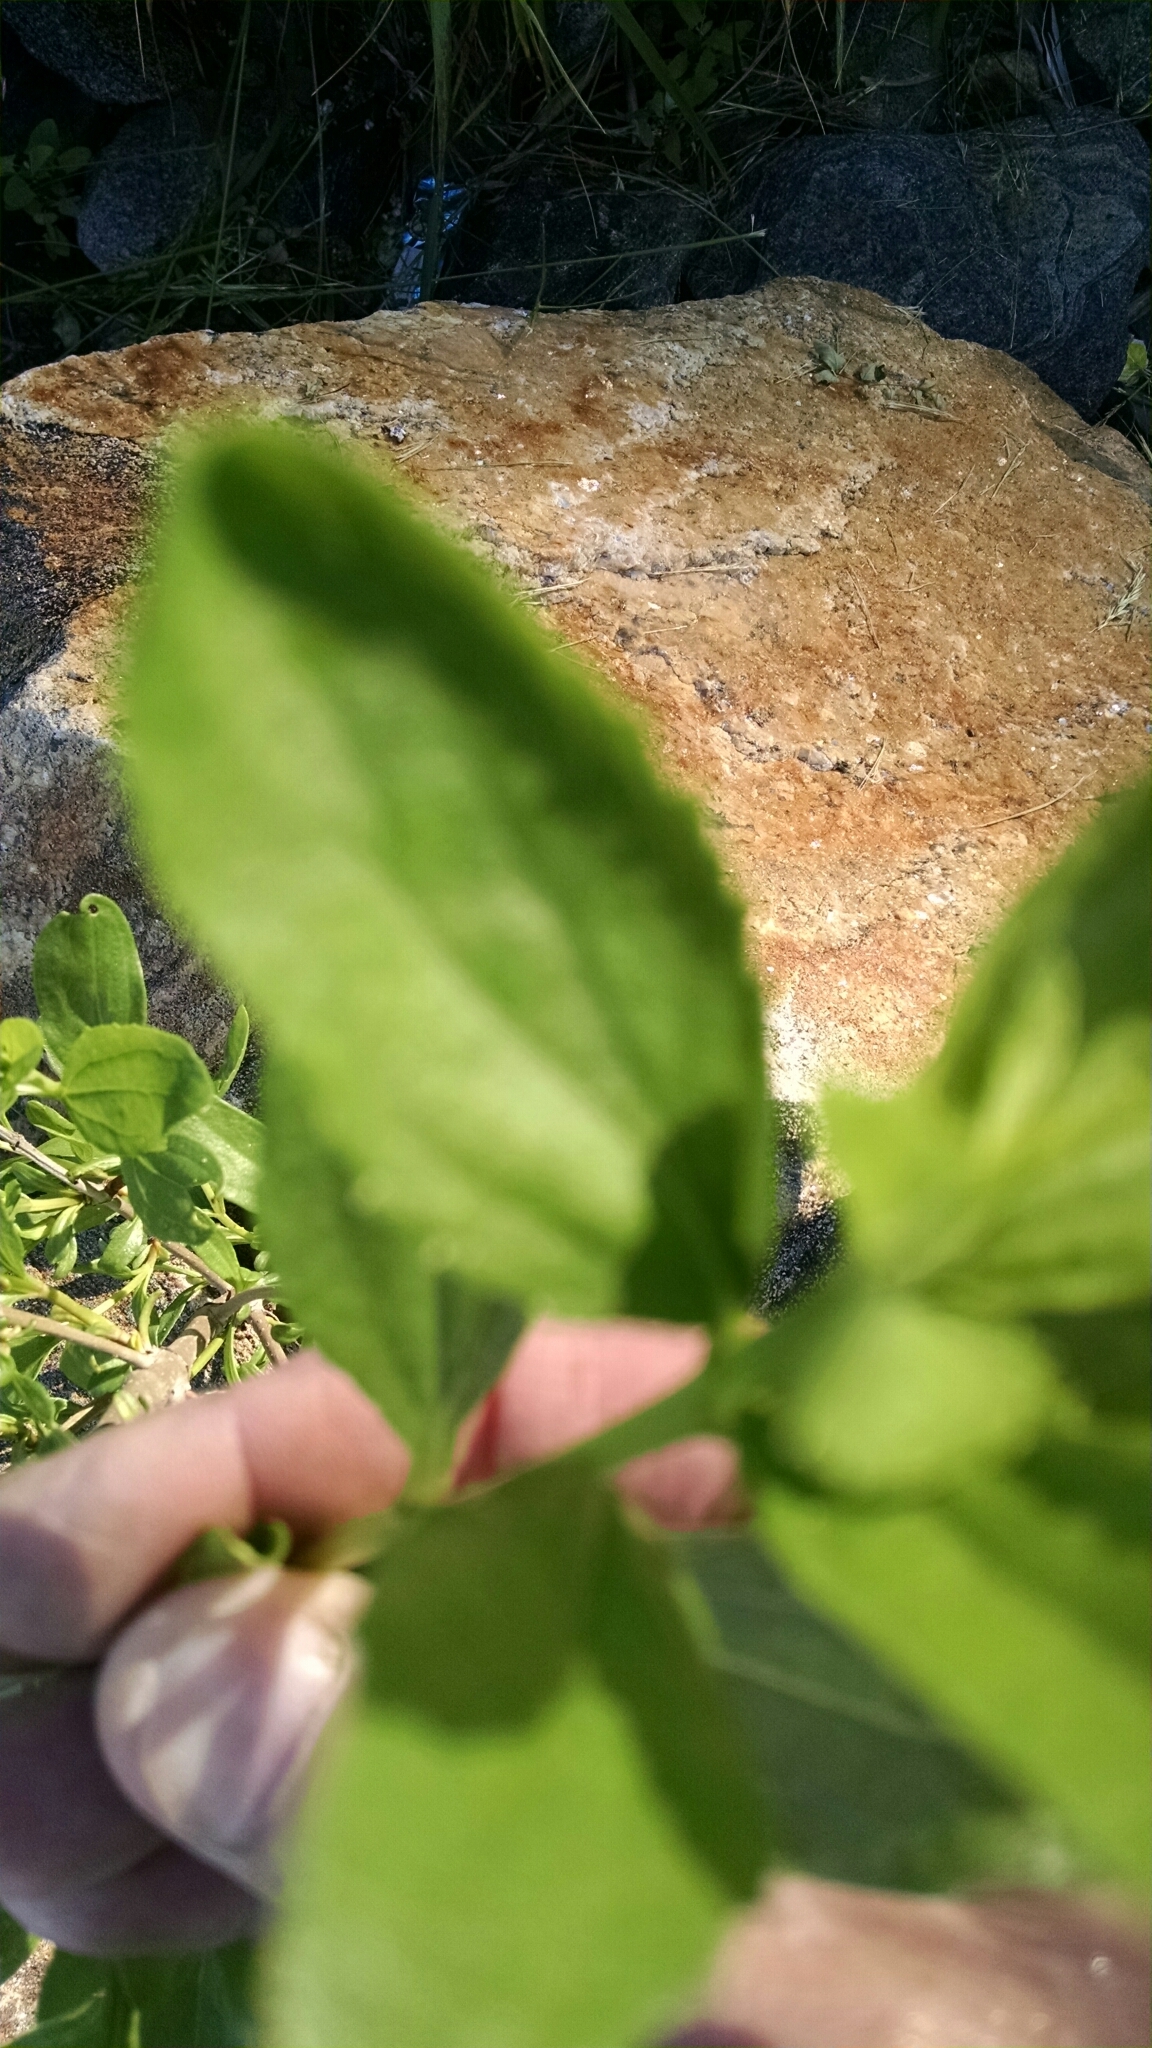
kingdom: Plantae
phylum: Tracheophyta
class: Magnoliopsida
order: Asterales
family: Asteraceae
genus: Iva
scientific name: Iva frutescens
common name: Big-leaved marsh-elder
